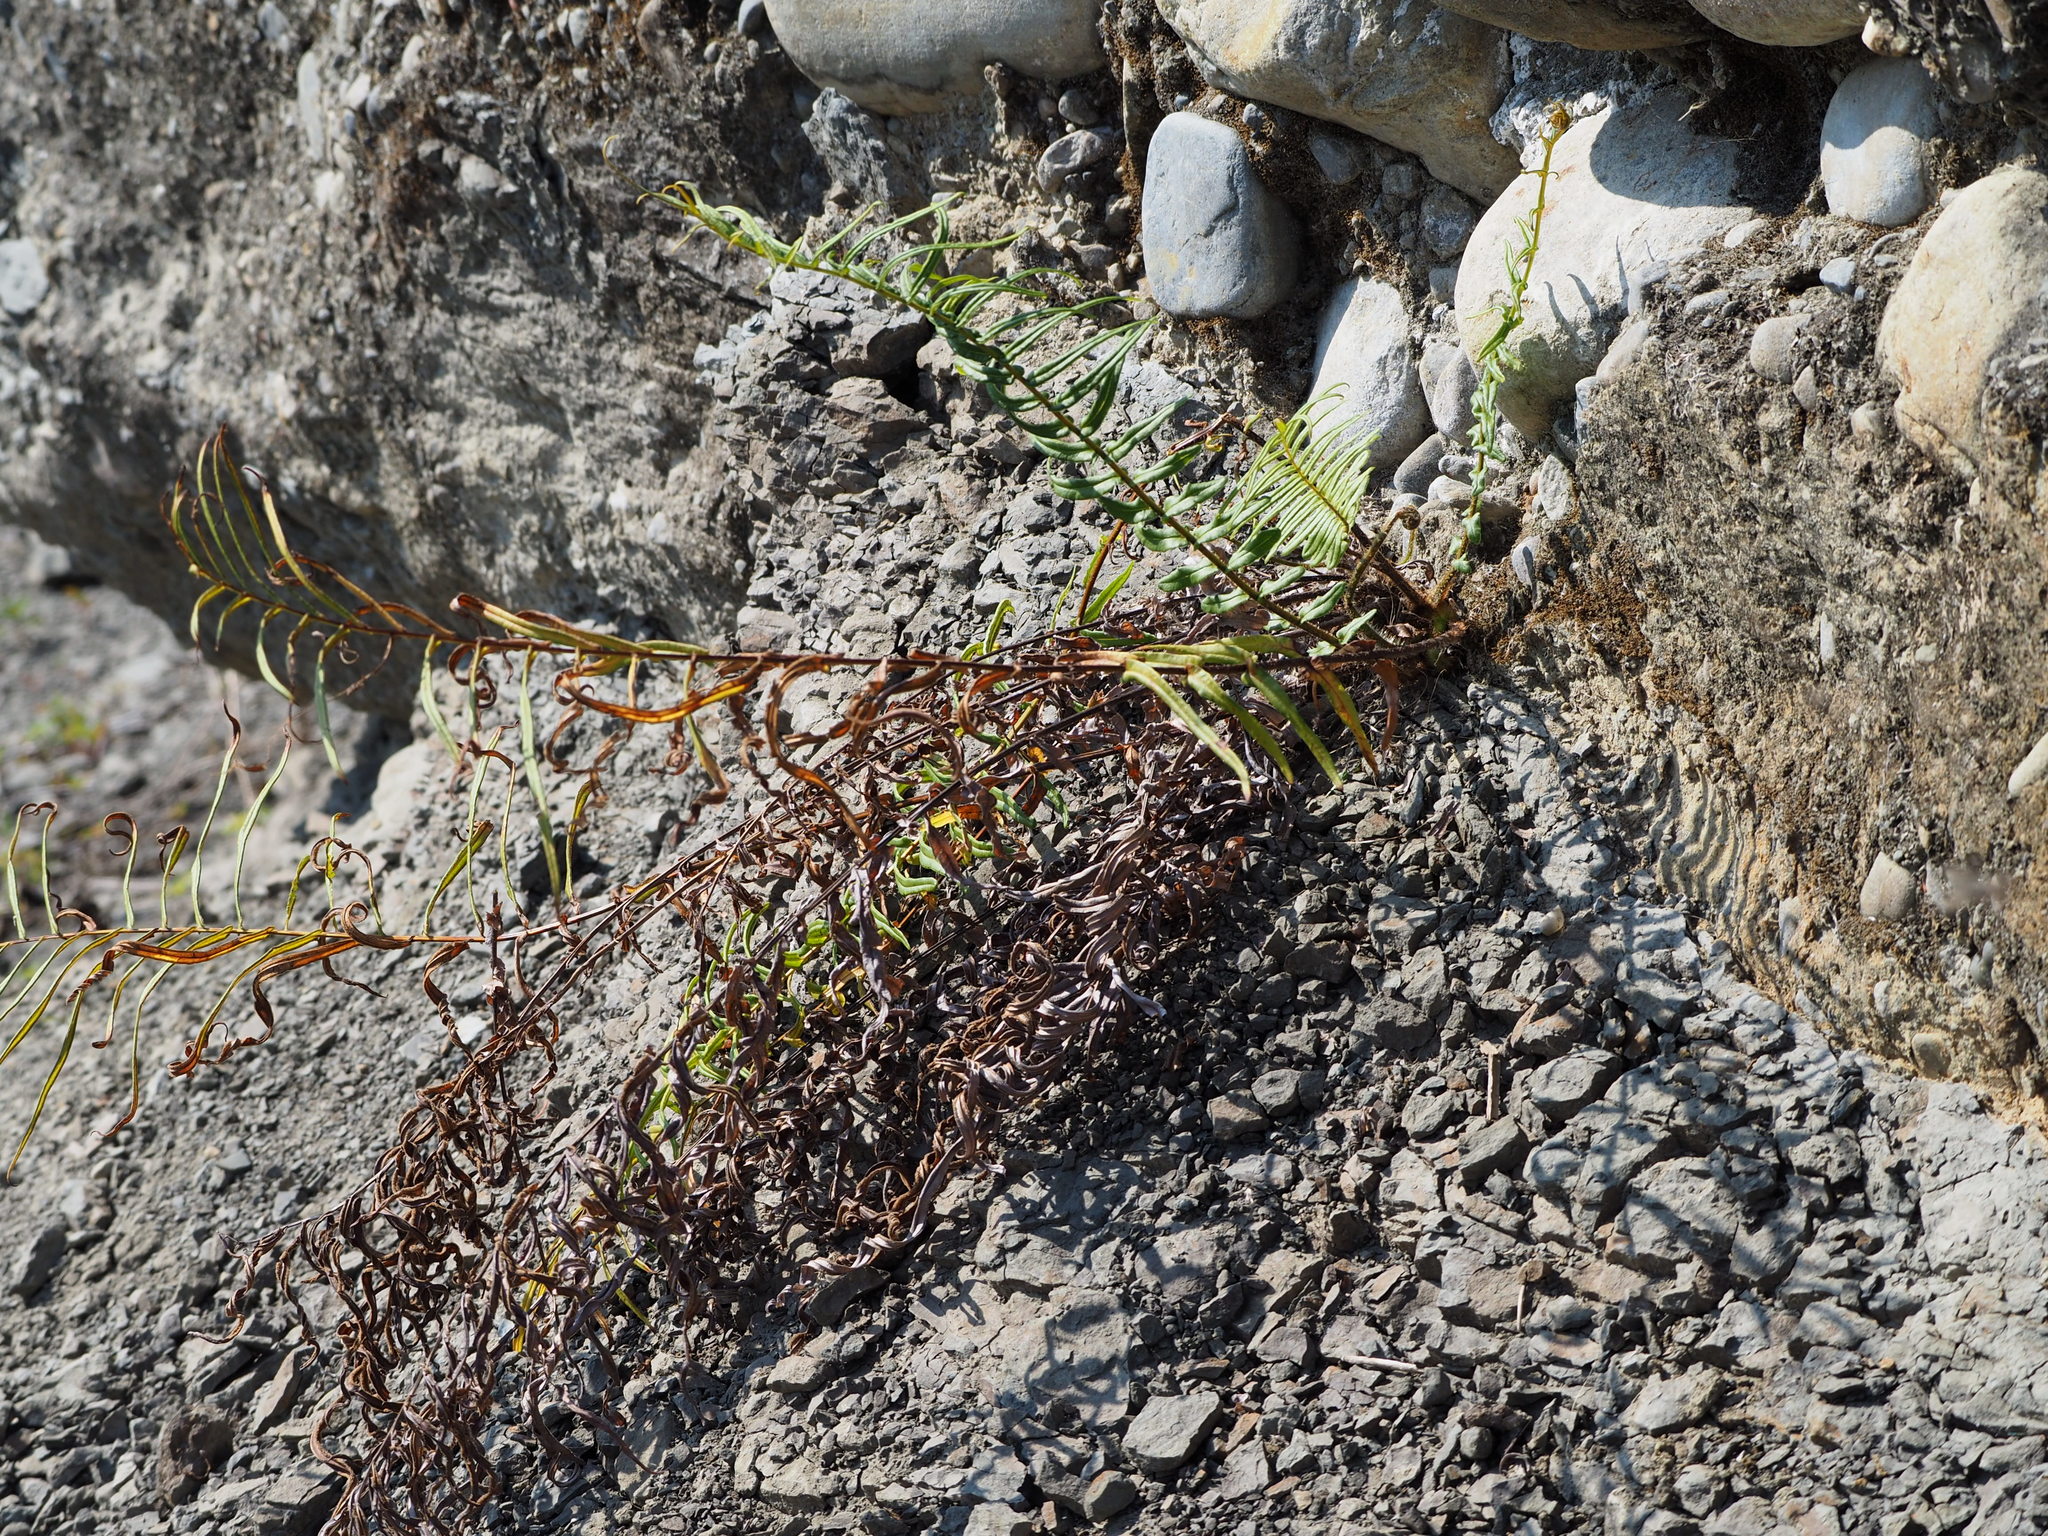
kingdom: Plantae
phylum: Tracheophyta
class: Polypodiopsida
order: Polypodiales
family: Pteridaceae
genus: Pteris
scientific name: Pteris vittata
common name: Ladder brake
